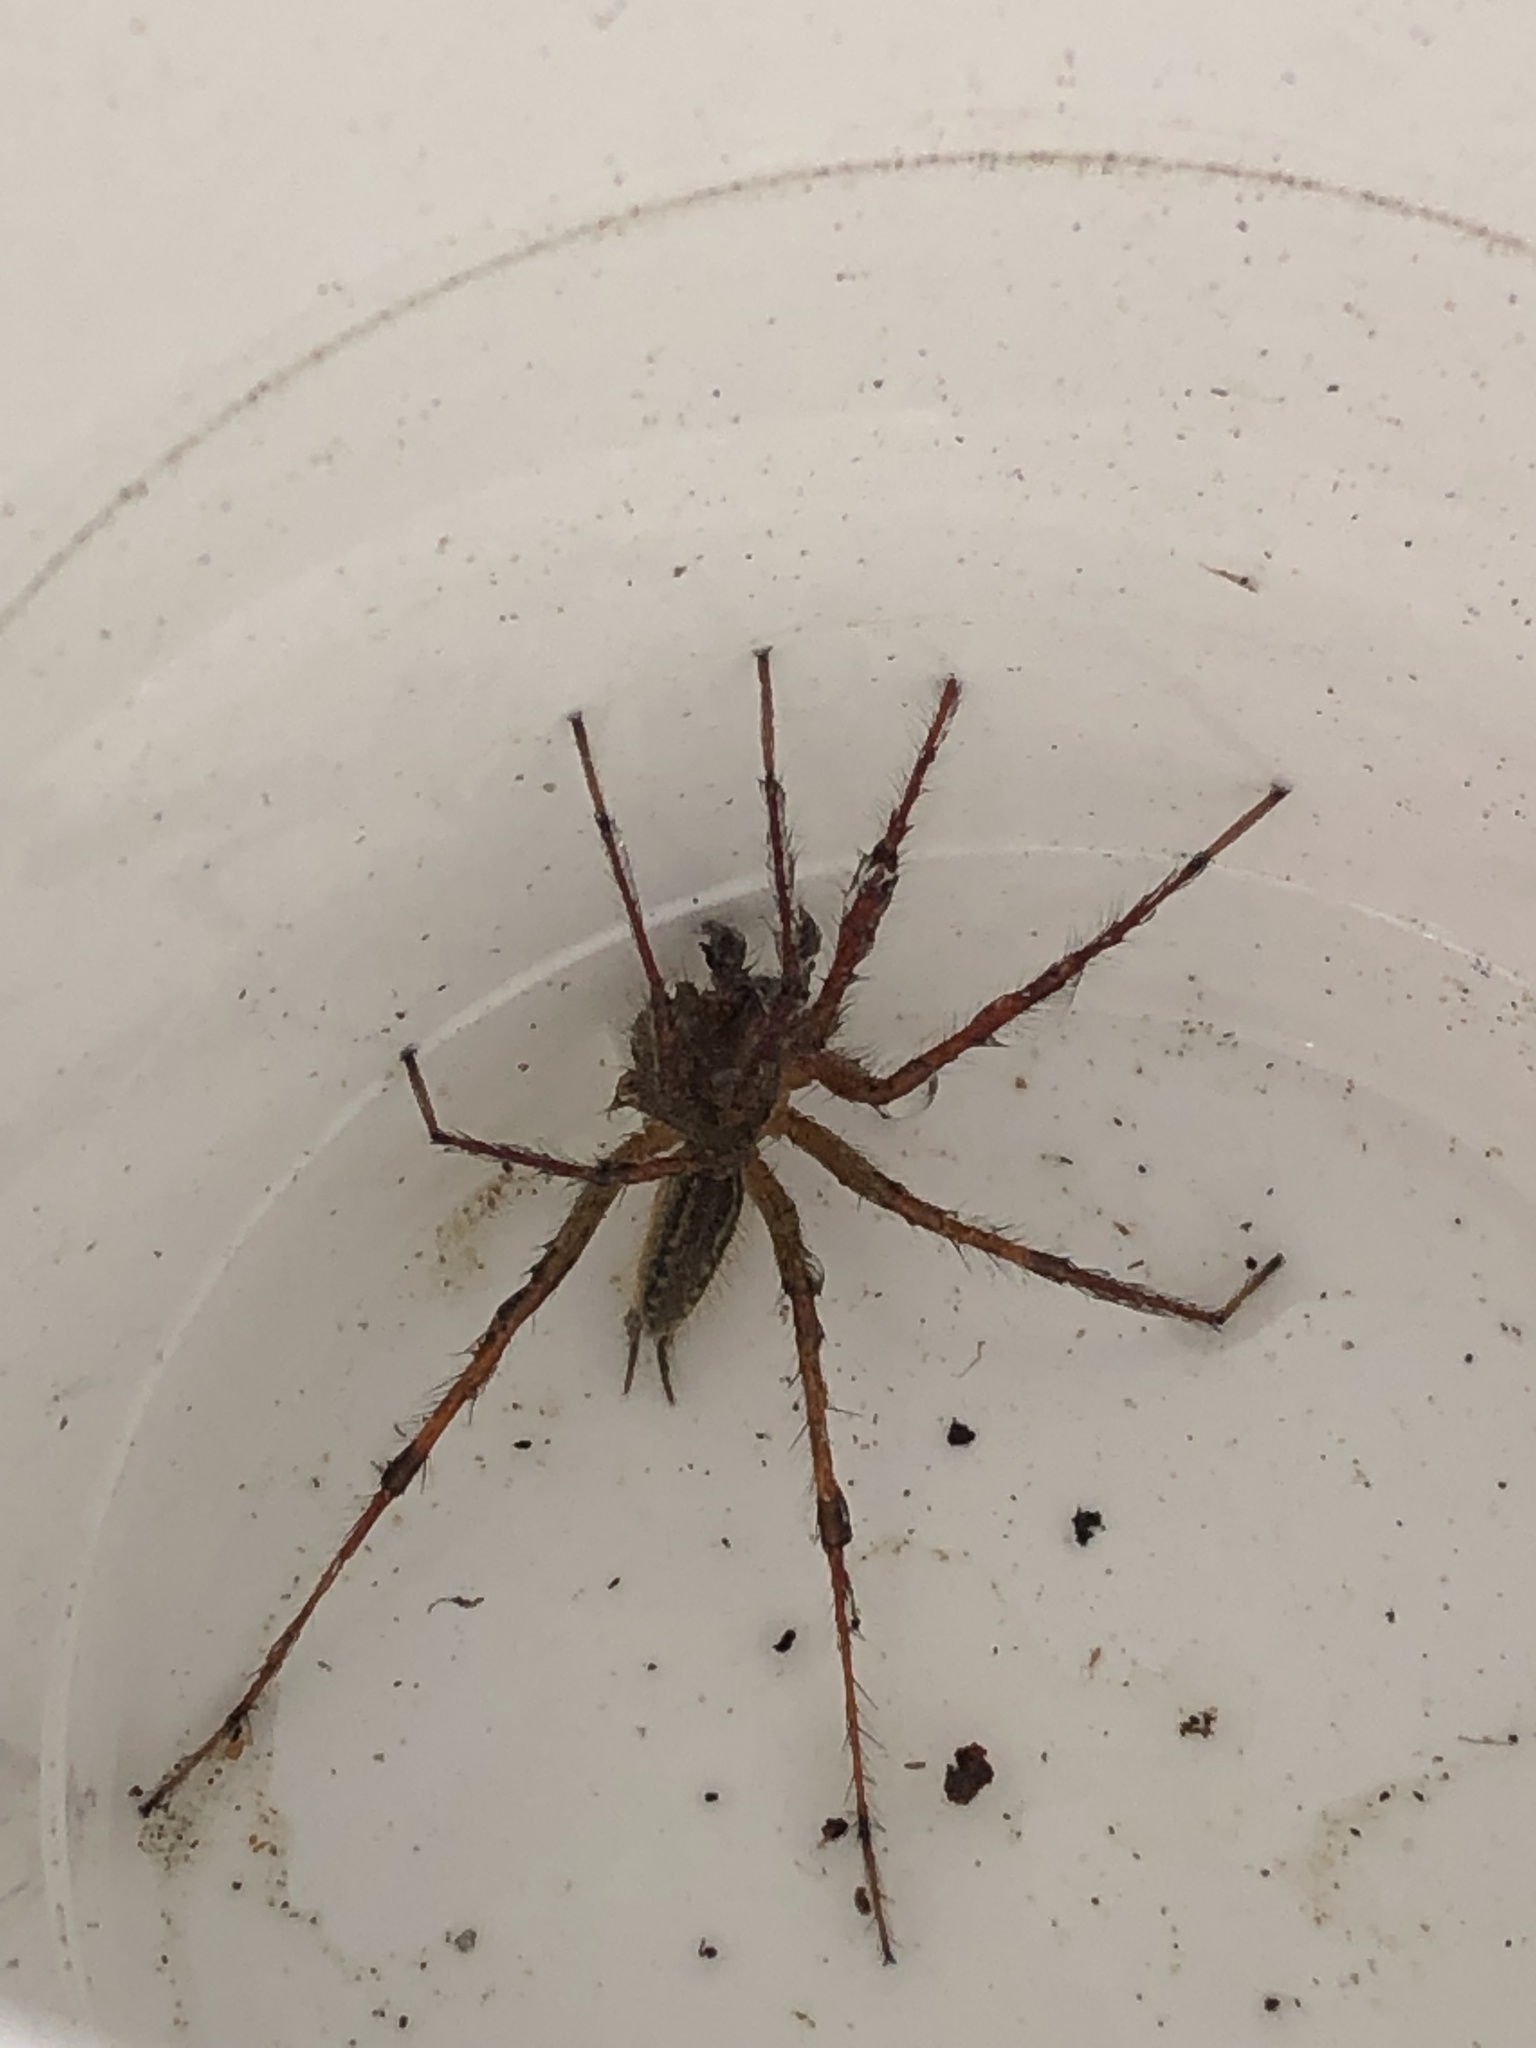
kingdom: Animalia
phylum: Arthropoda
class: Arachnida
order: Araneae
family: Agelenidae
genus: Agelenopsis
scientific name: Agelenopsis
